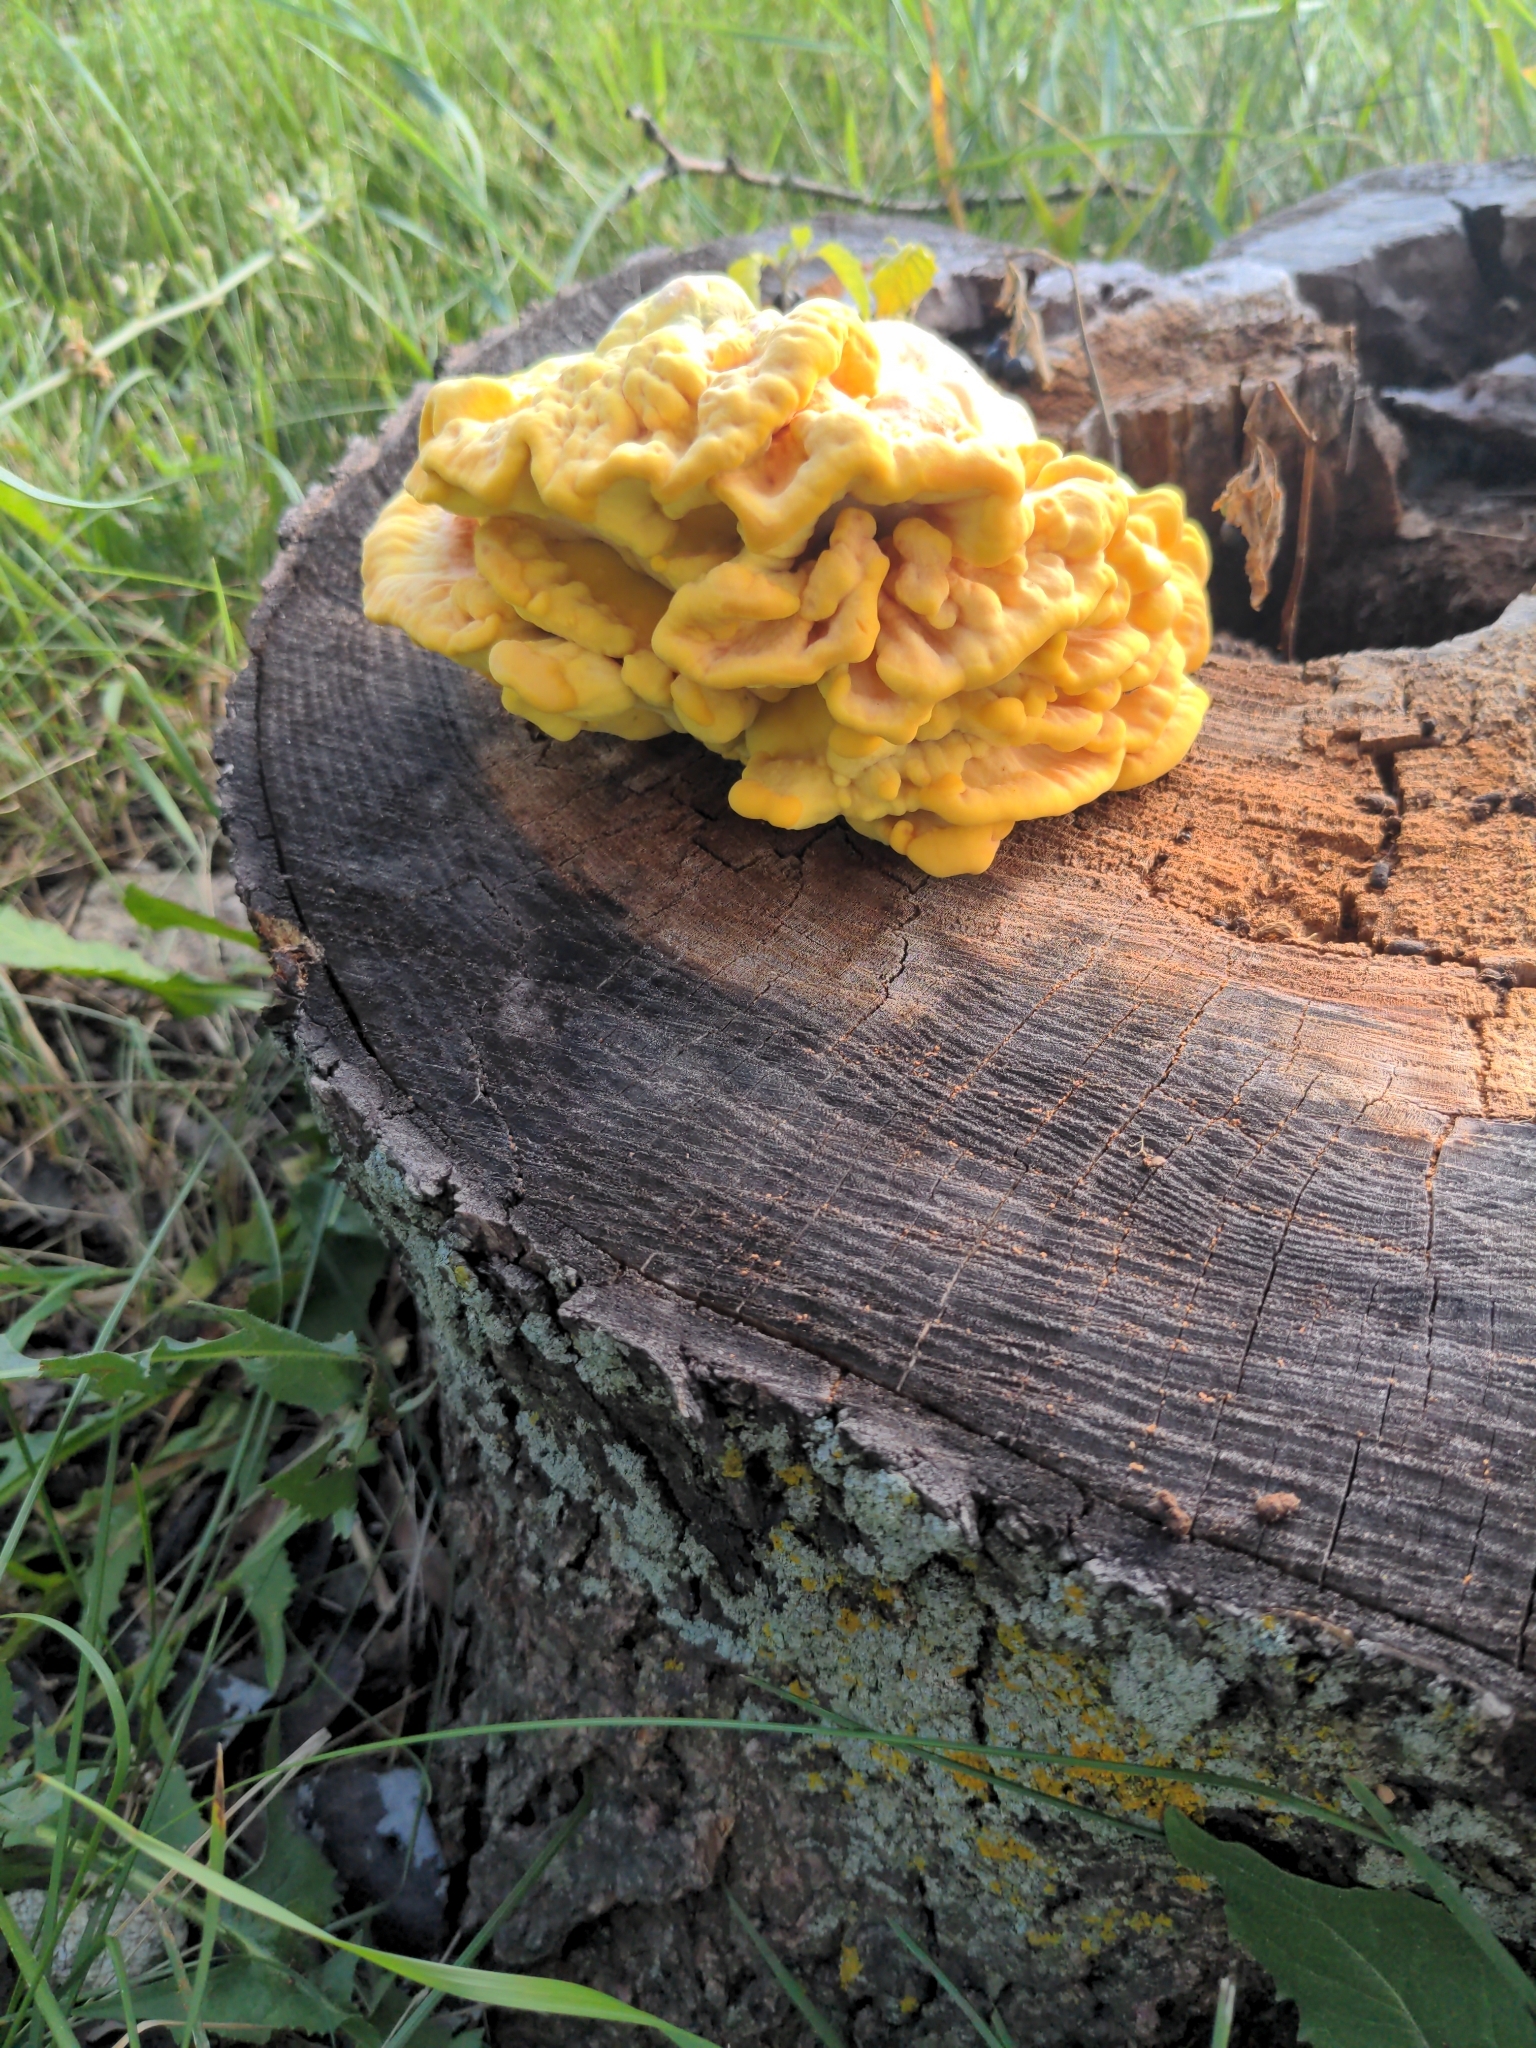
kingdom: Fungi
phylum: Basidiomycota
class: Agaricomycetes
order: Polyporales
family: Laetiporaceae
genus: Laetiporus
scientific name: Laetiporus sulphureus
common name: Chicken of the woods
